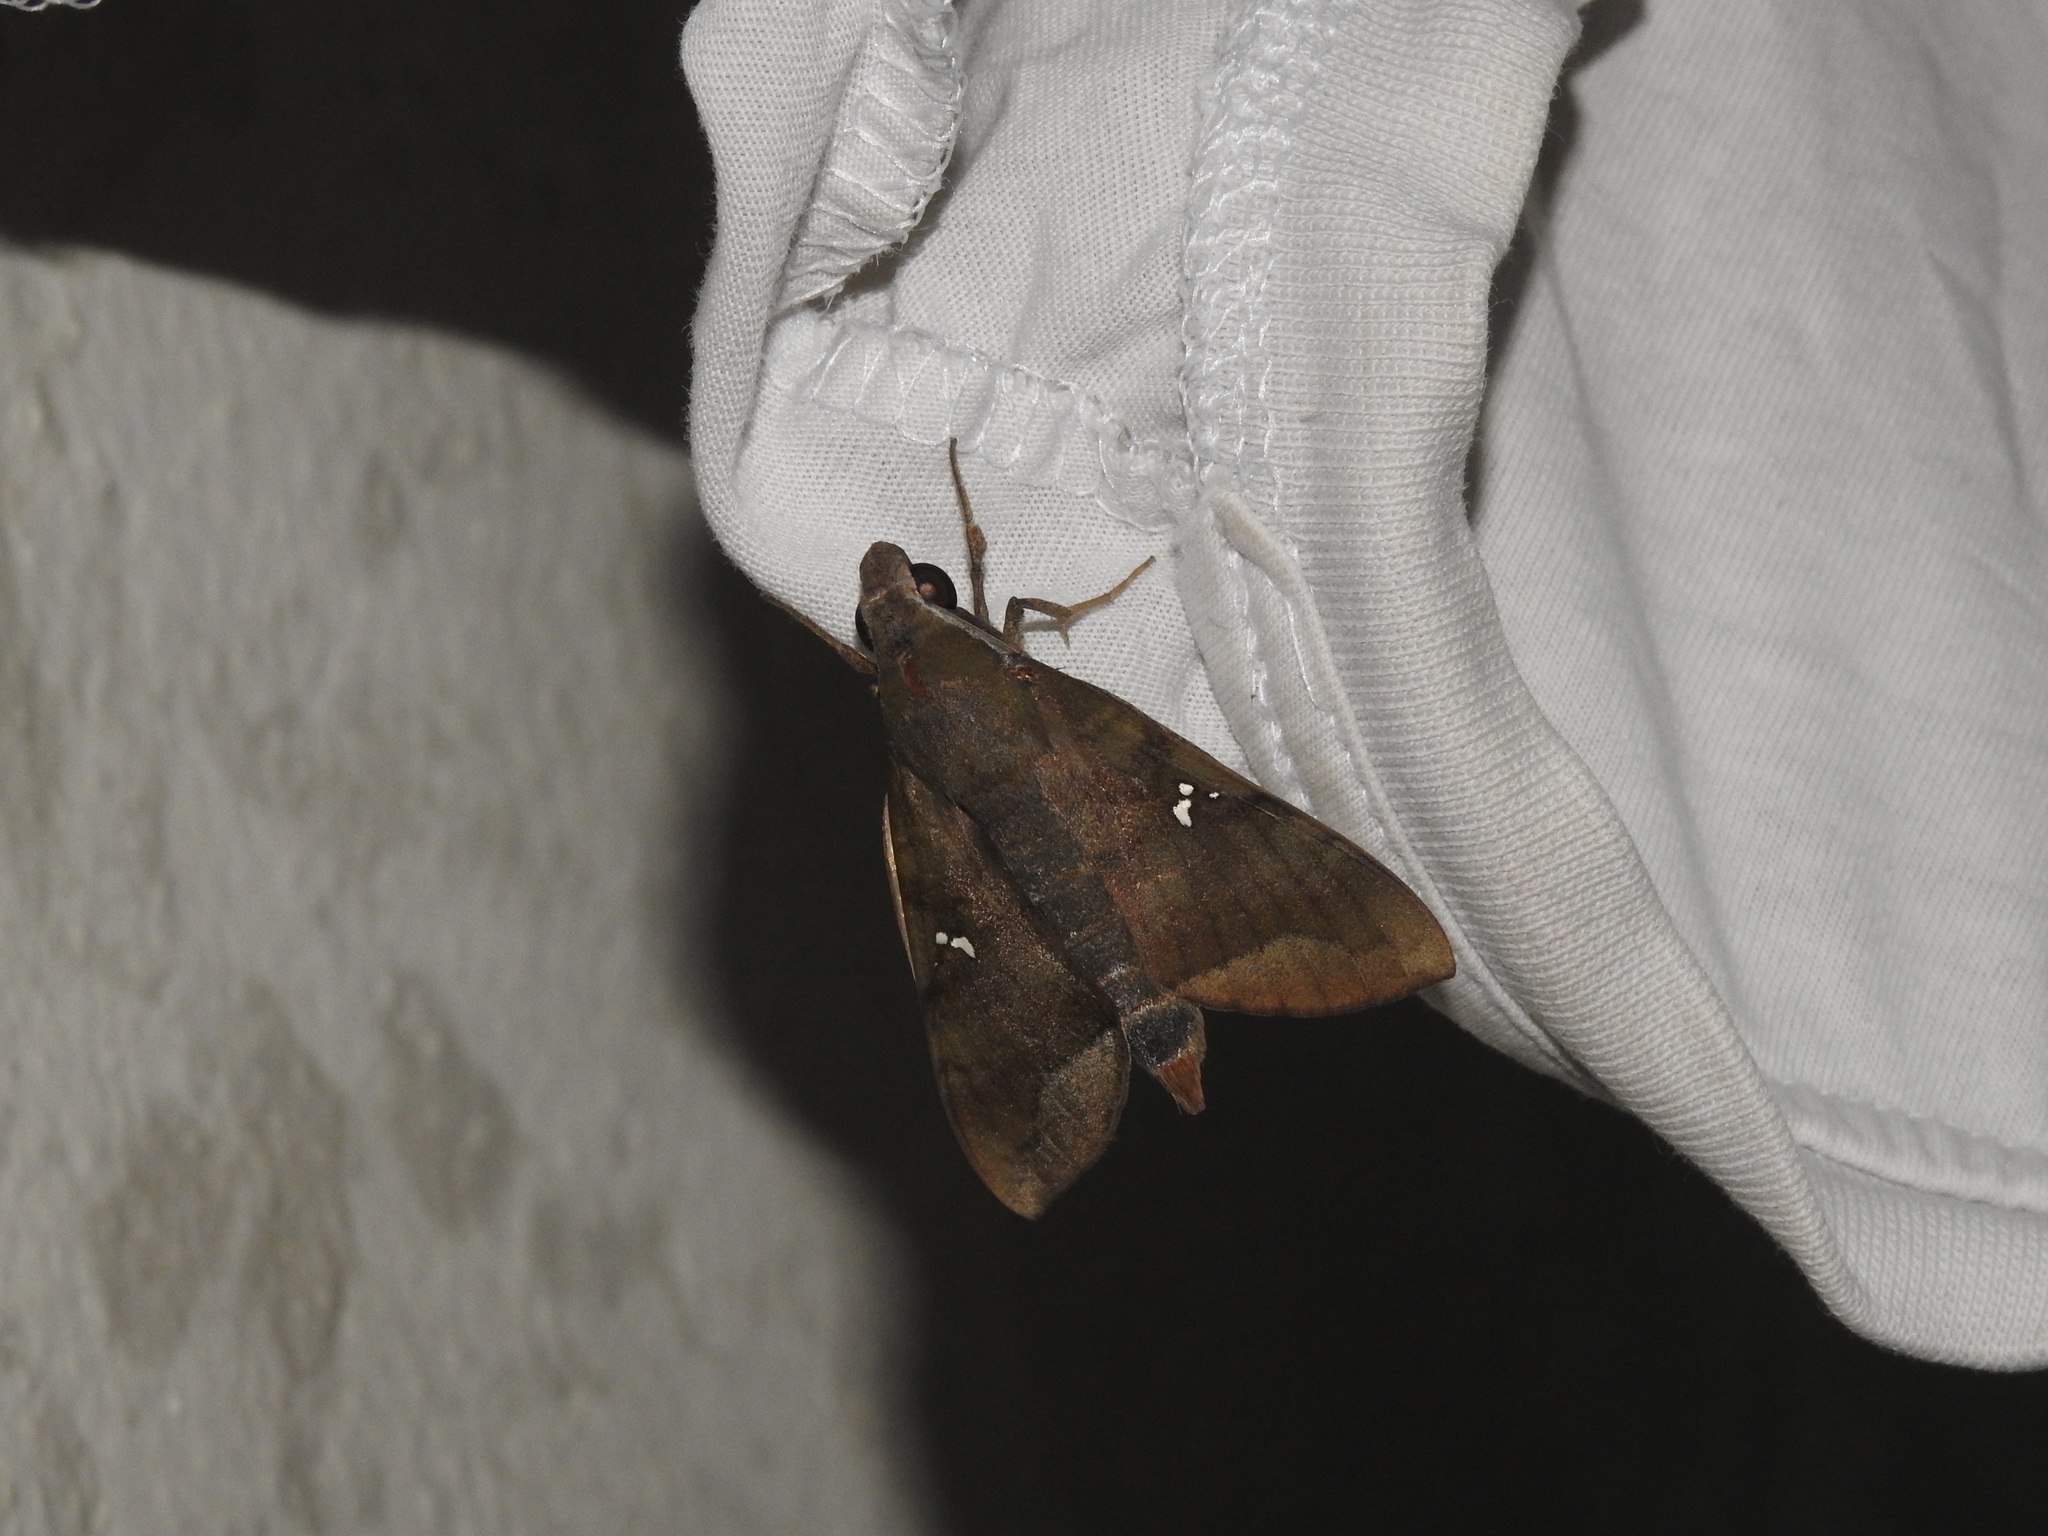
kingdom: Animalia
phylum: Arthropoda
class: Insecta
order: Lepidoptera
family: Sphingidae
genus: Nephele
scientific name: Nephele hespera
